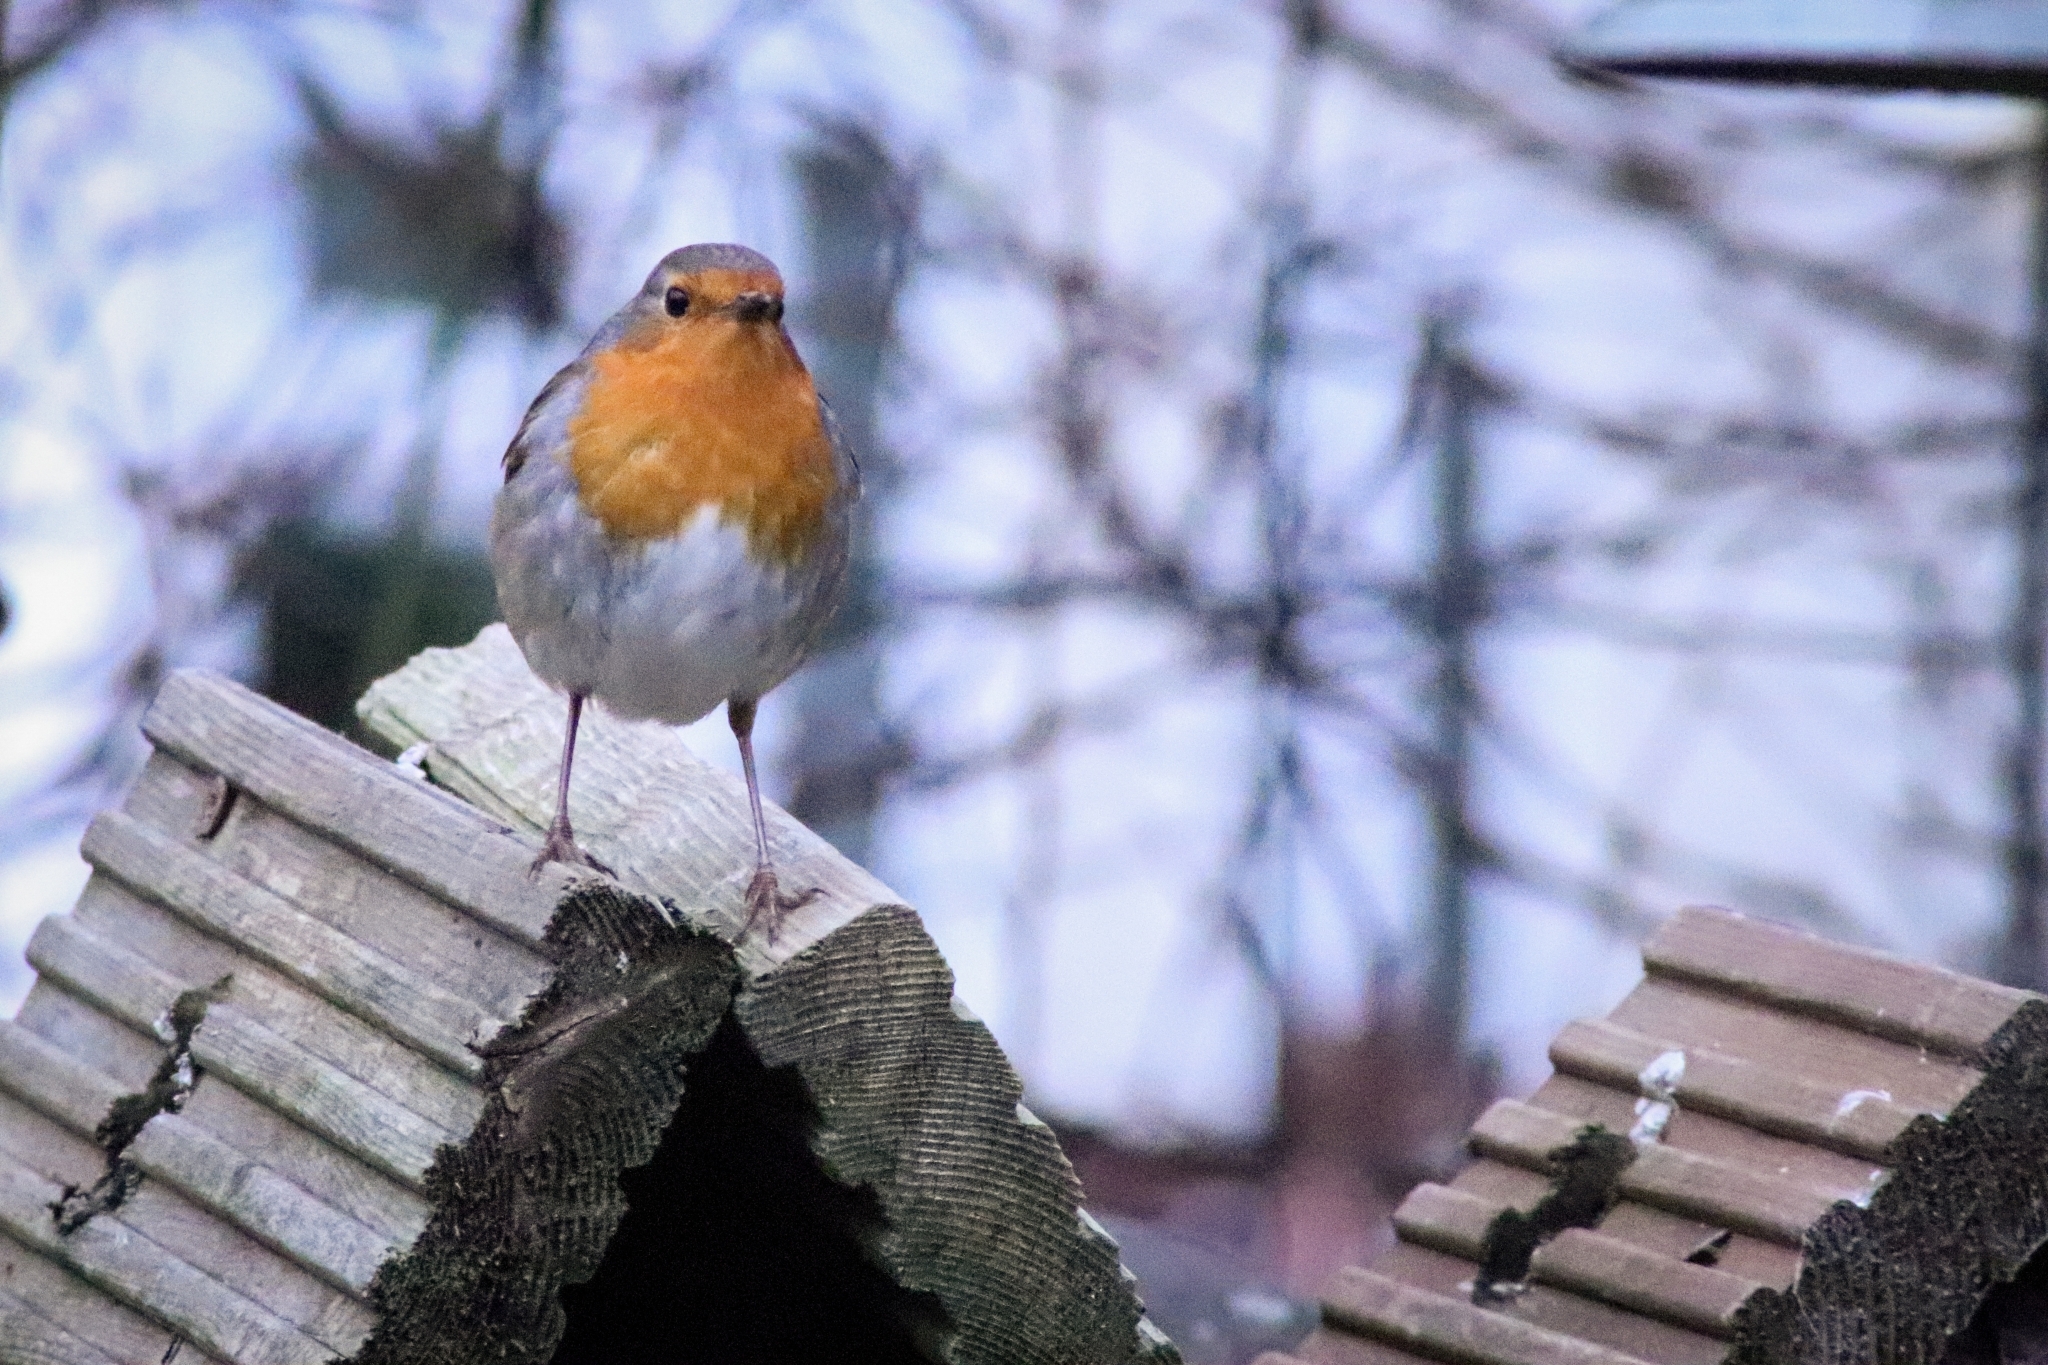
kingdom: Animalia
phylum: Chordata
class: Aves
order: Passeriformes
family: Muscicapidae
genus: Erithacus
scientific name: Erithacus rubecula
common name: European robin
